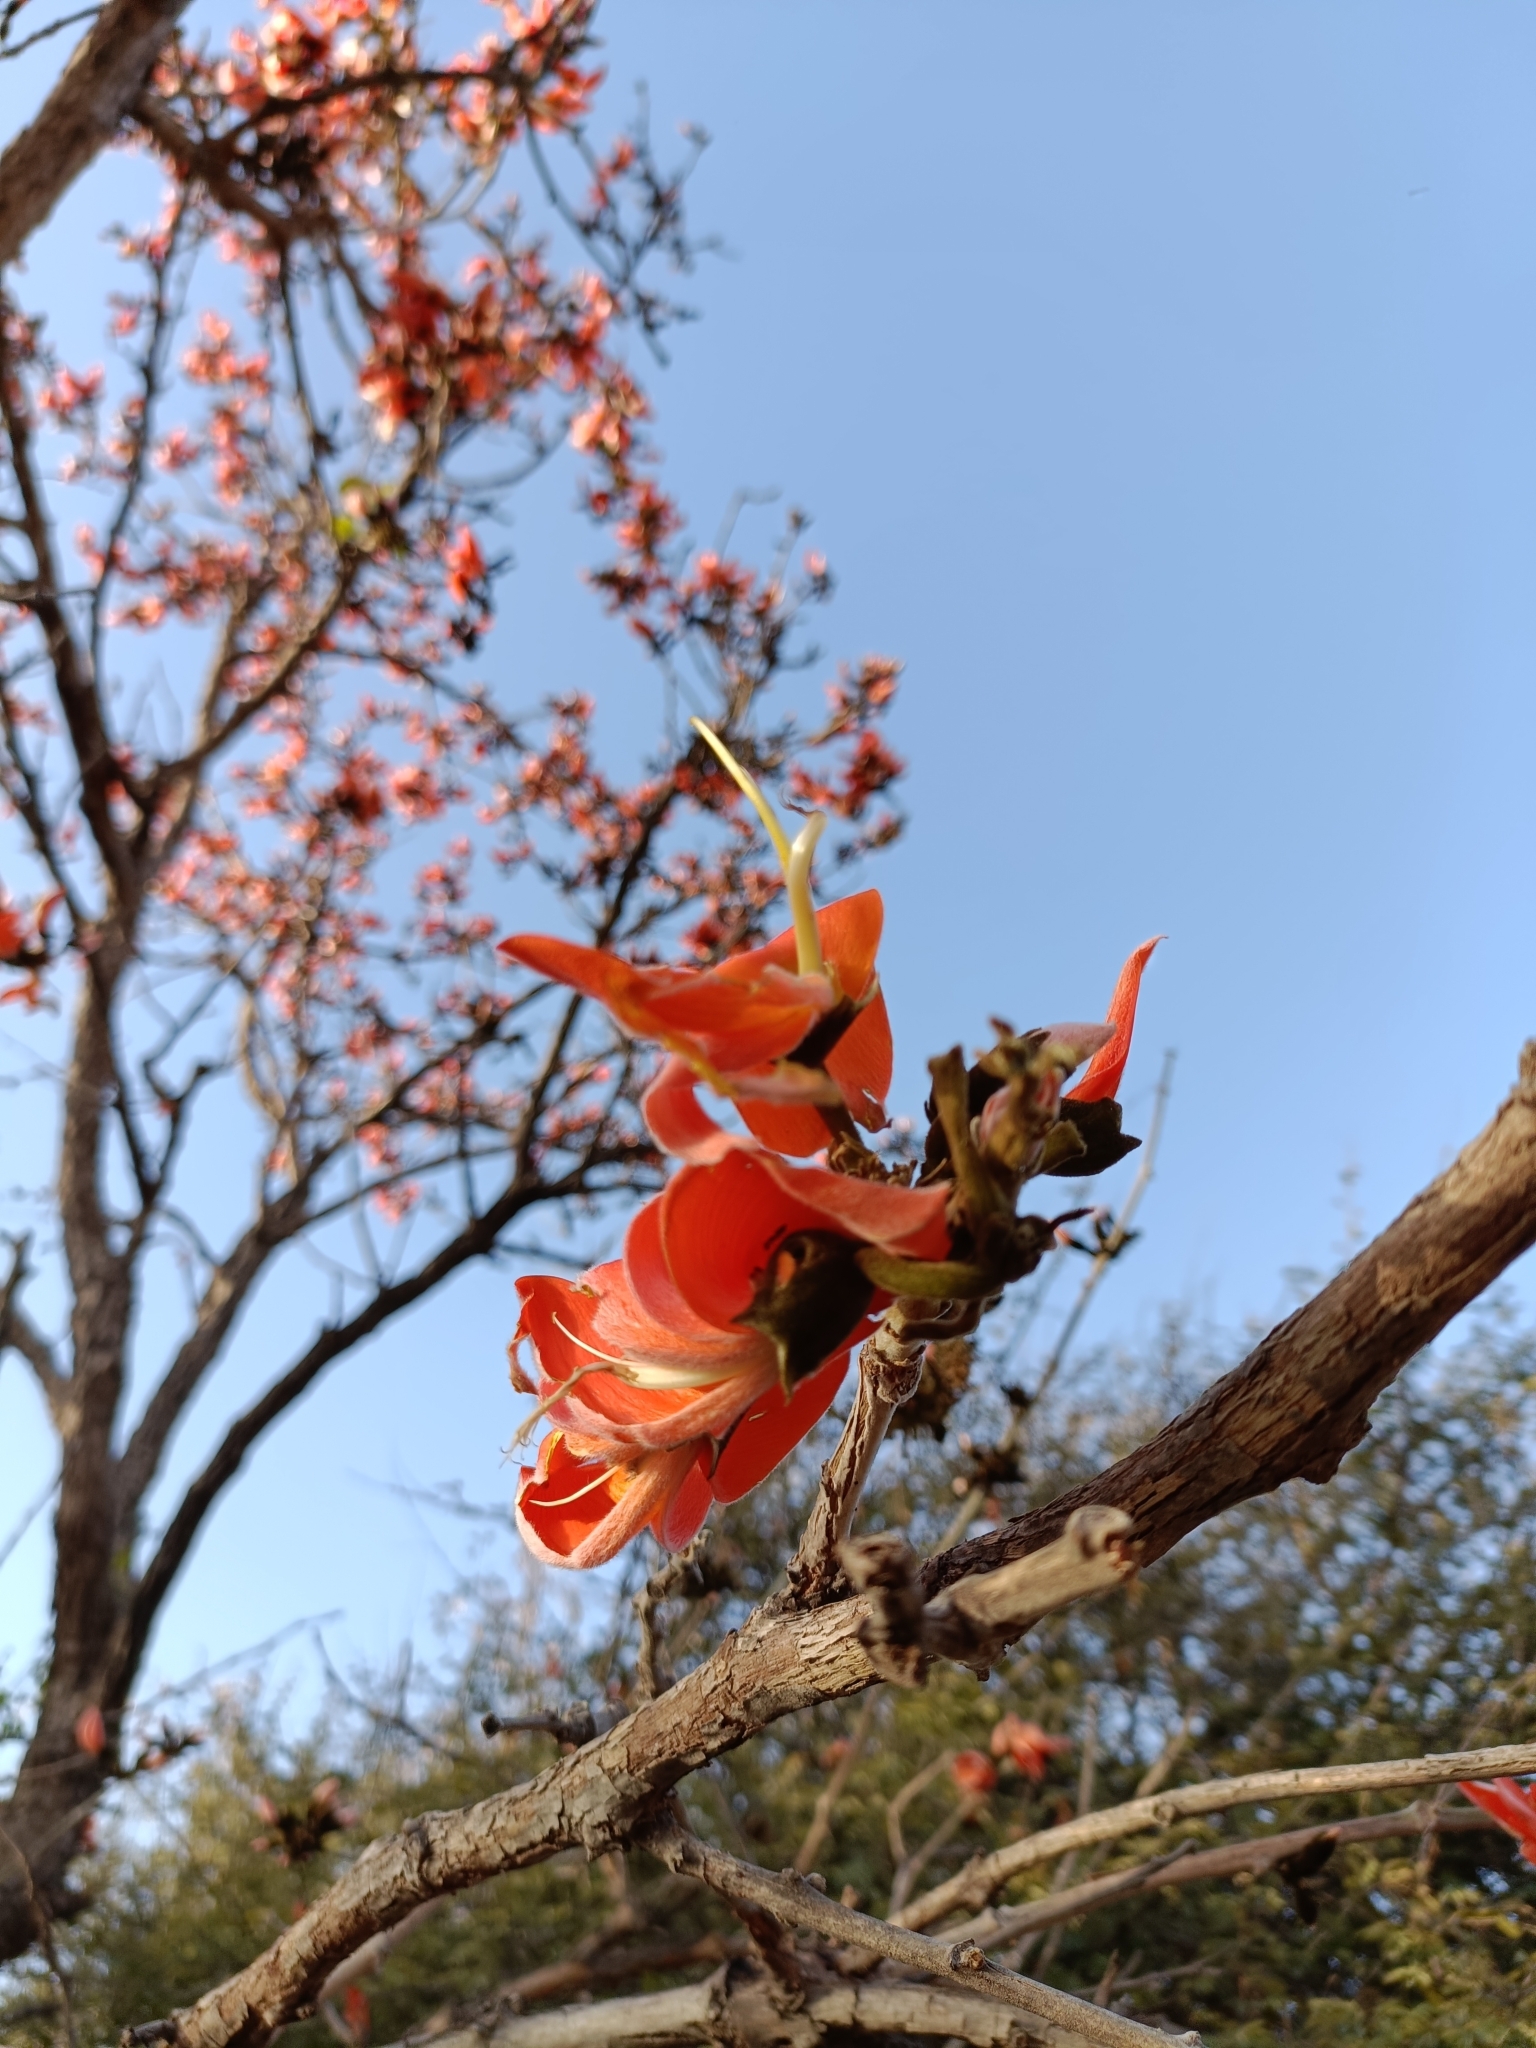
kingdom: Plantae
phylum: Tracheophyta
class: Magnoliopsida
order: Fabales
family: Fabaceae
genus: Butea
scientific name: Butea monosperma
